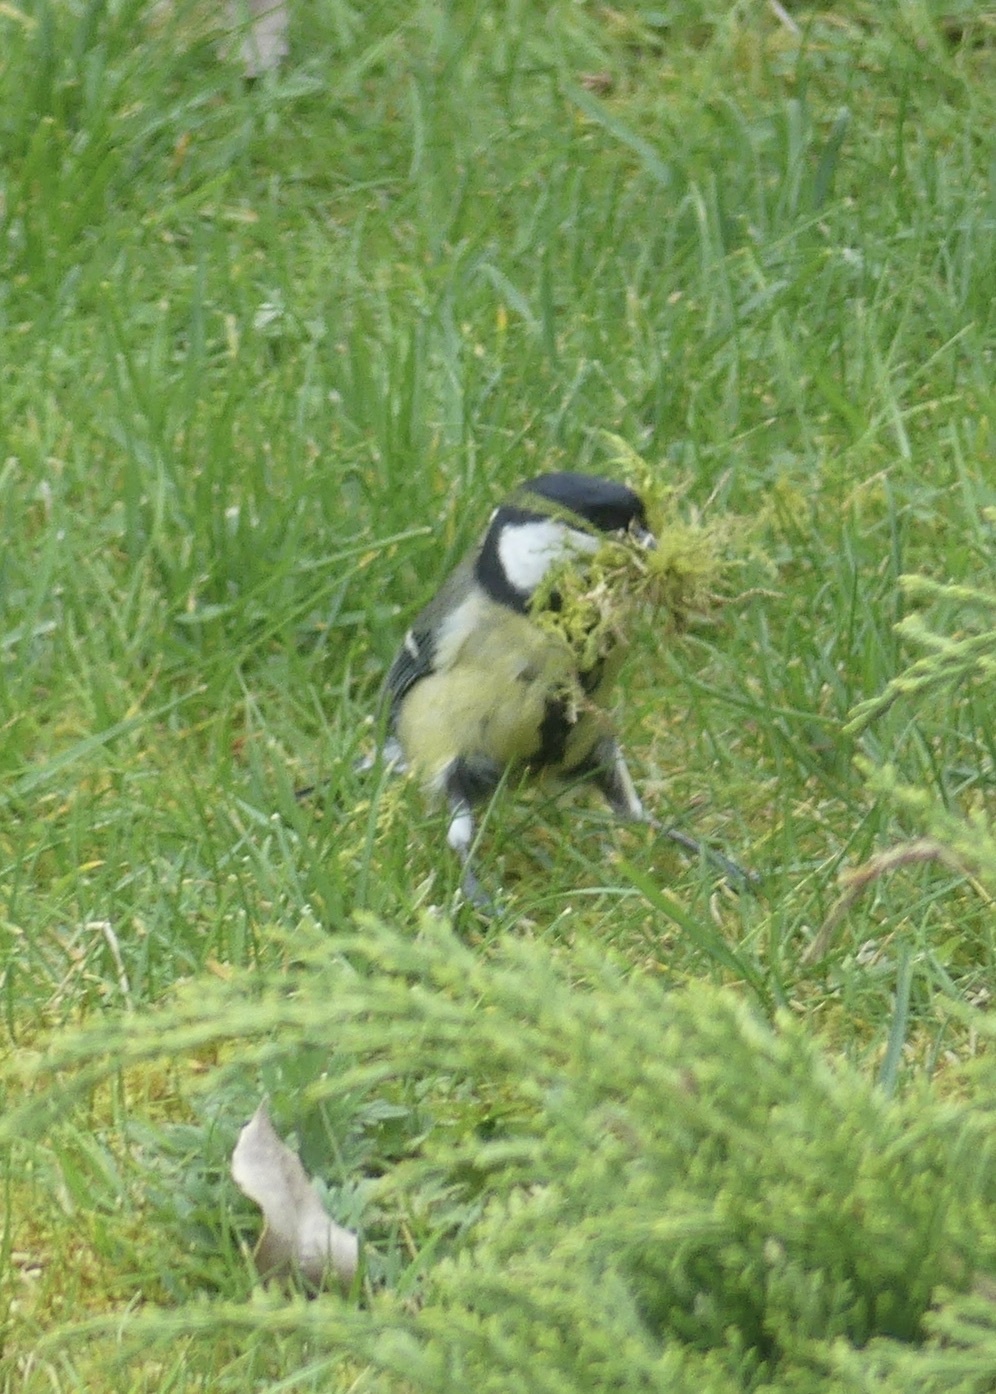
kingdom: Animalia
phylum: Chordata
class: Aves
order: Passeriformes
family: Paridae
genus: Parus
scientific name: Parus major
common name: Great tit
